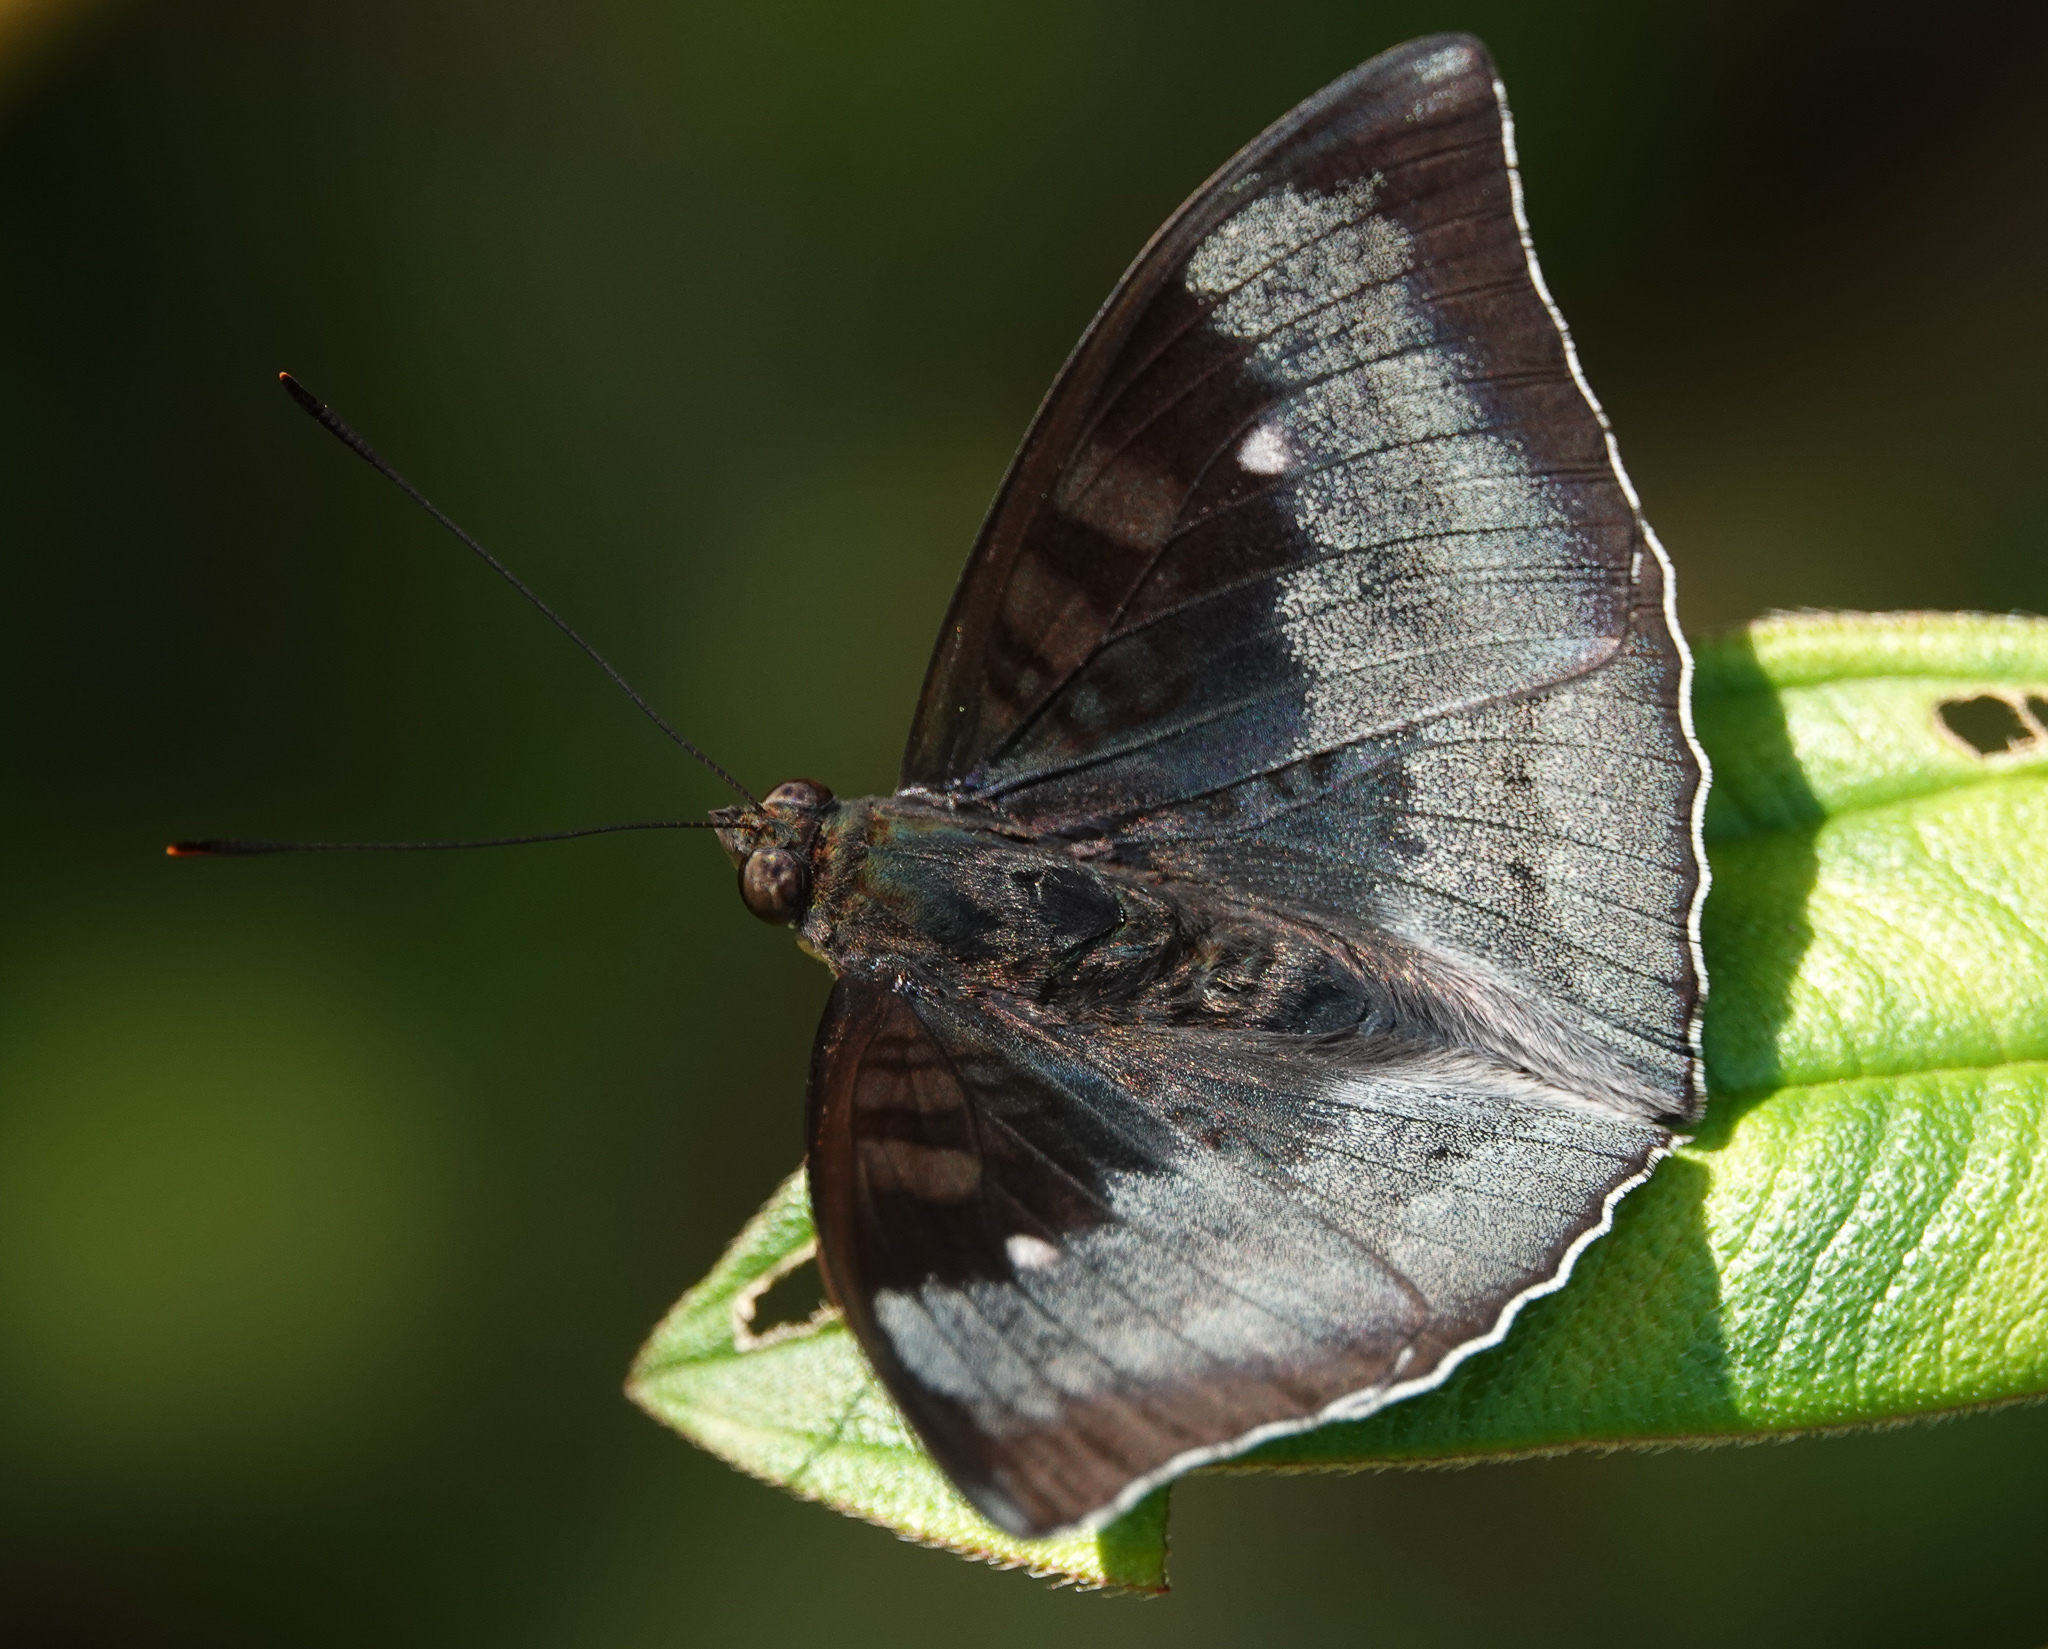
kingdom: Animalia
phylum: Arthropoda
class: Insecta
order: Lepidoptera
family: Nymphalidae
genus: Euthalia
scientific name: Euthalia monina
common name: Powdered baron
